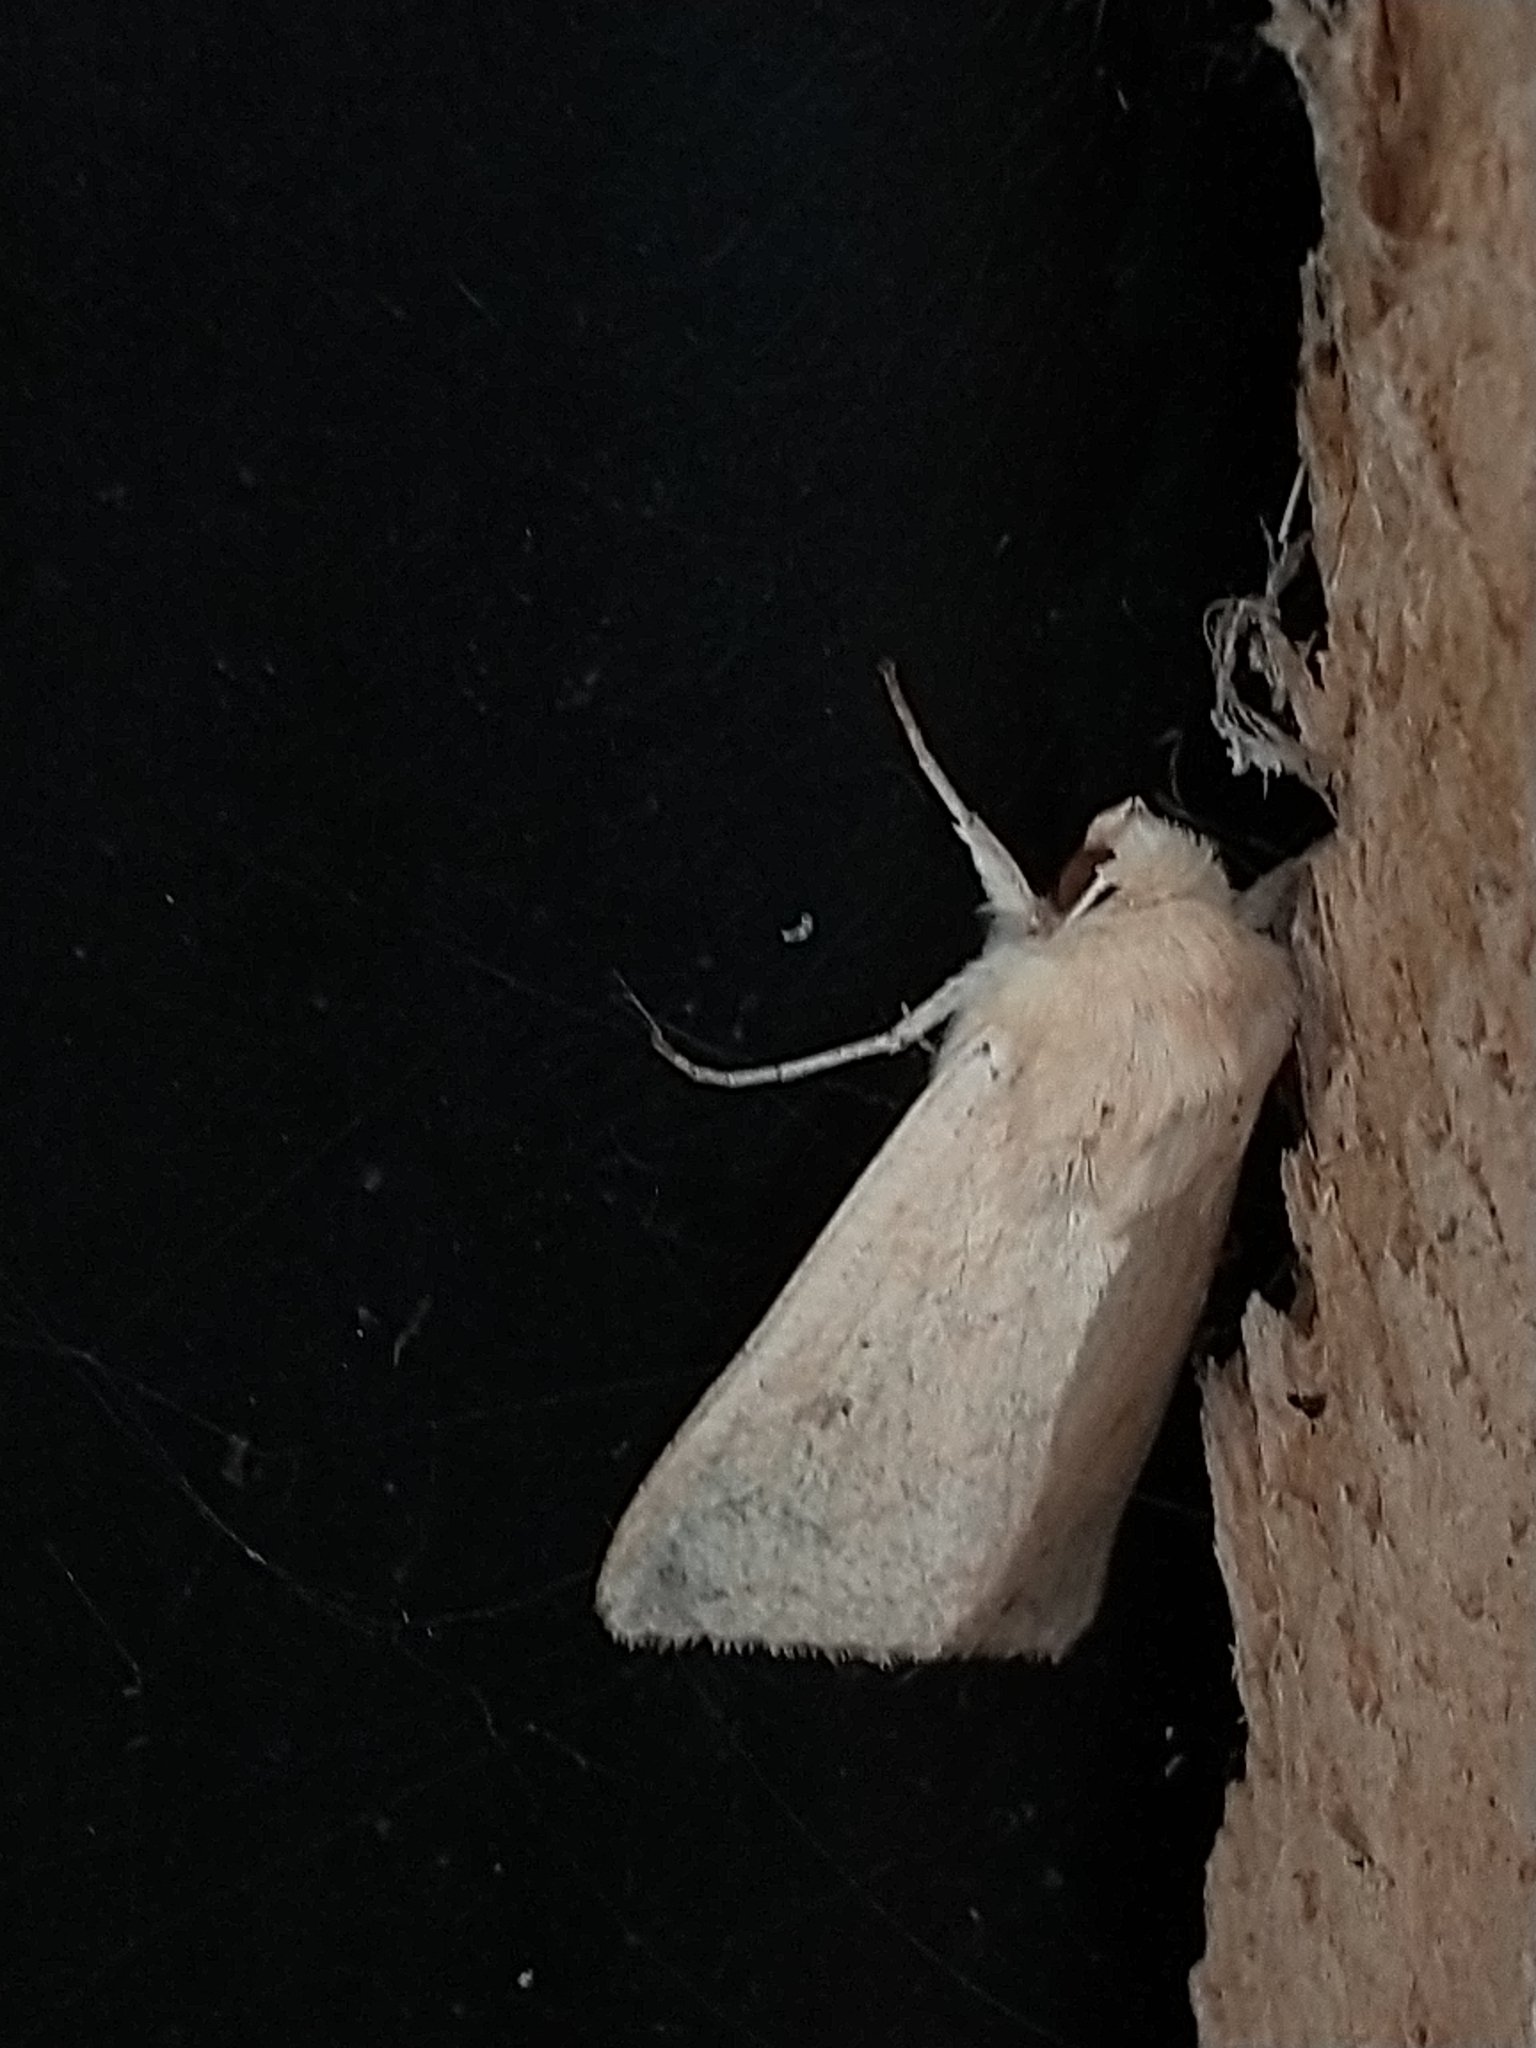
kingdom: Animalia
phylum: Arthropoda
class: Insecta
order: Lepidoptera
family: Noctuidae
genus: Mythimna
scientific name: Mythimna vitellina
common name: Delicate
